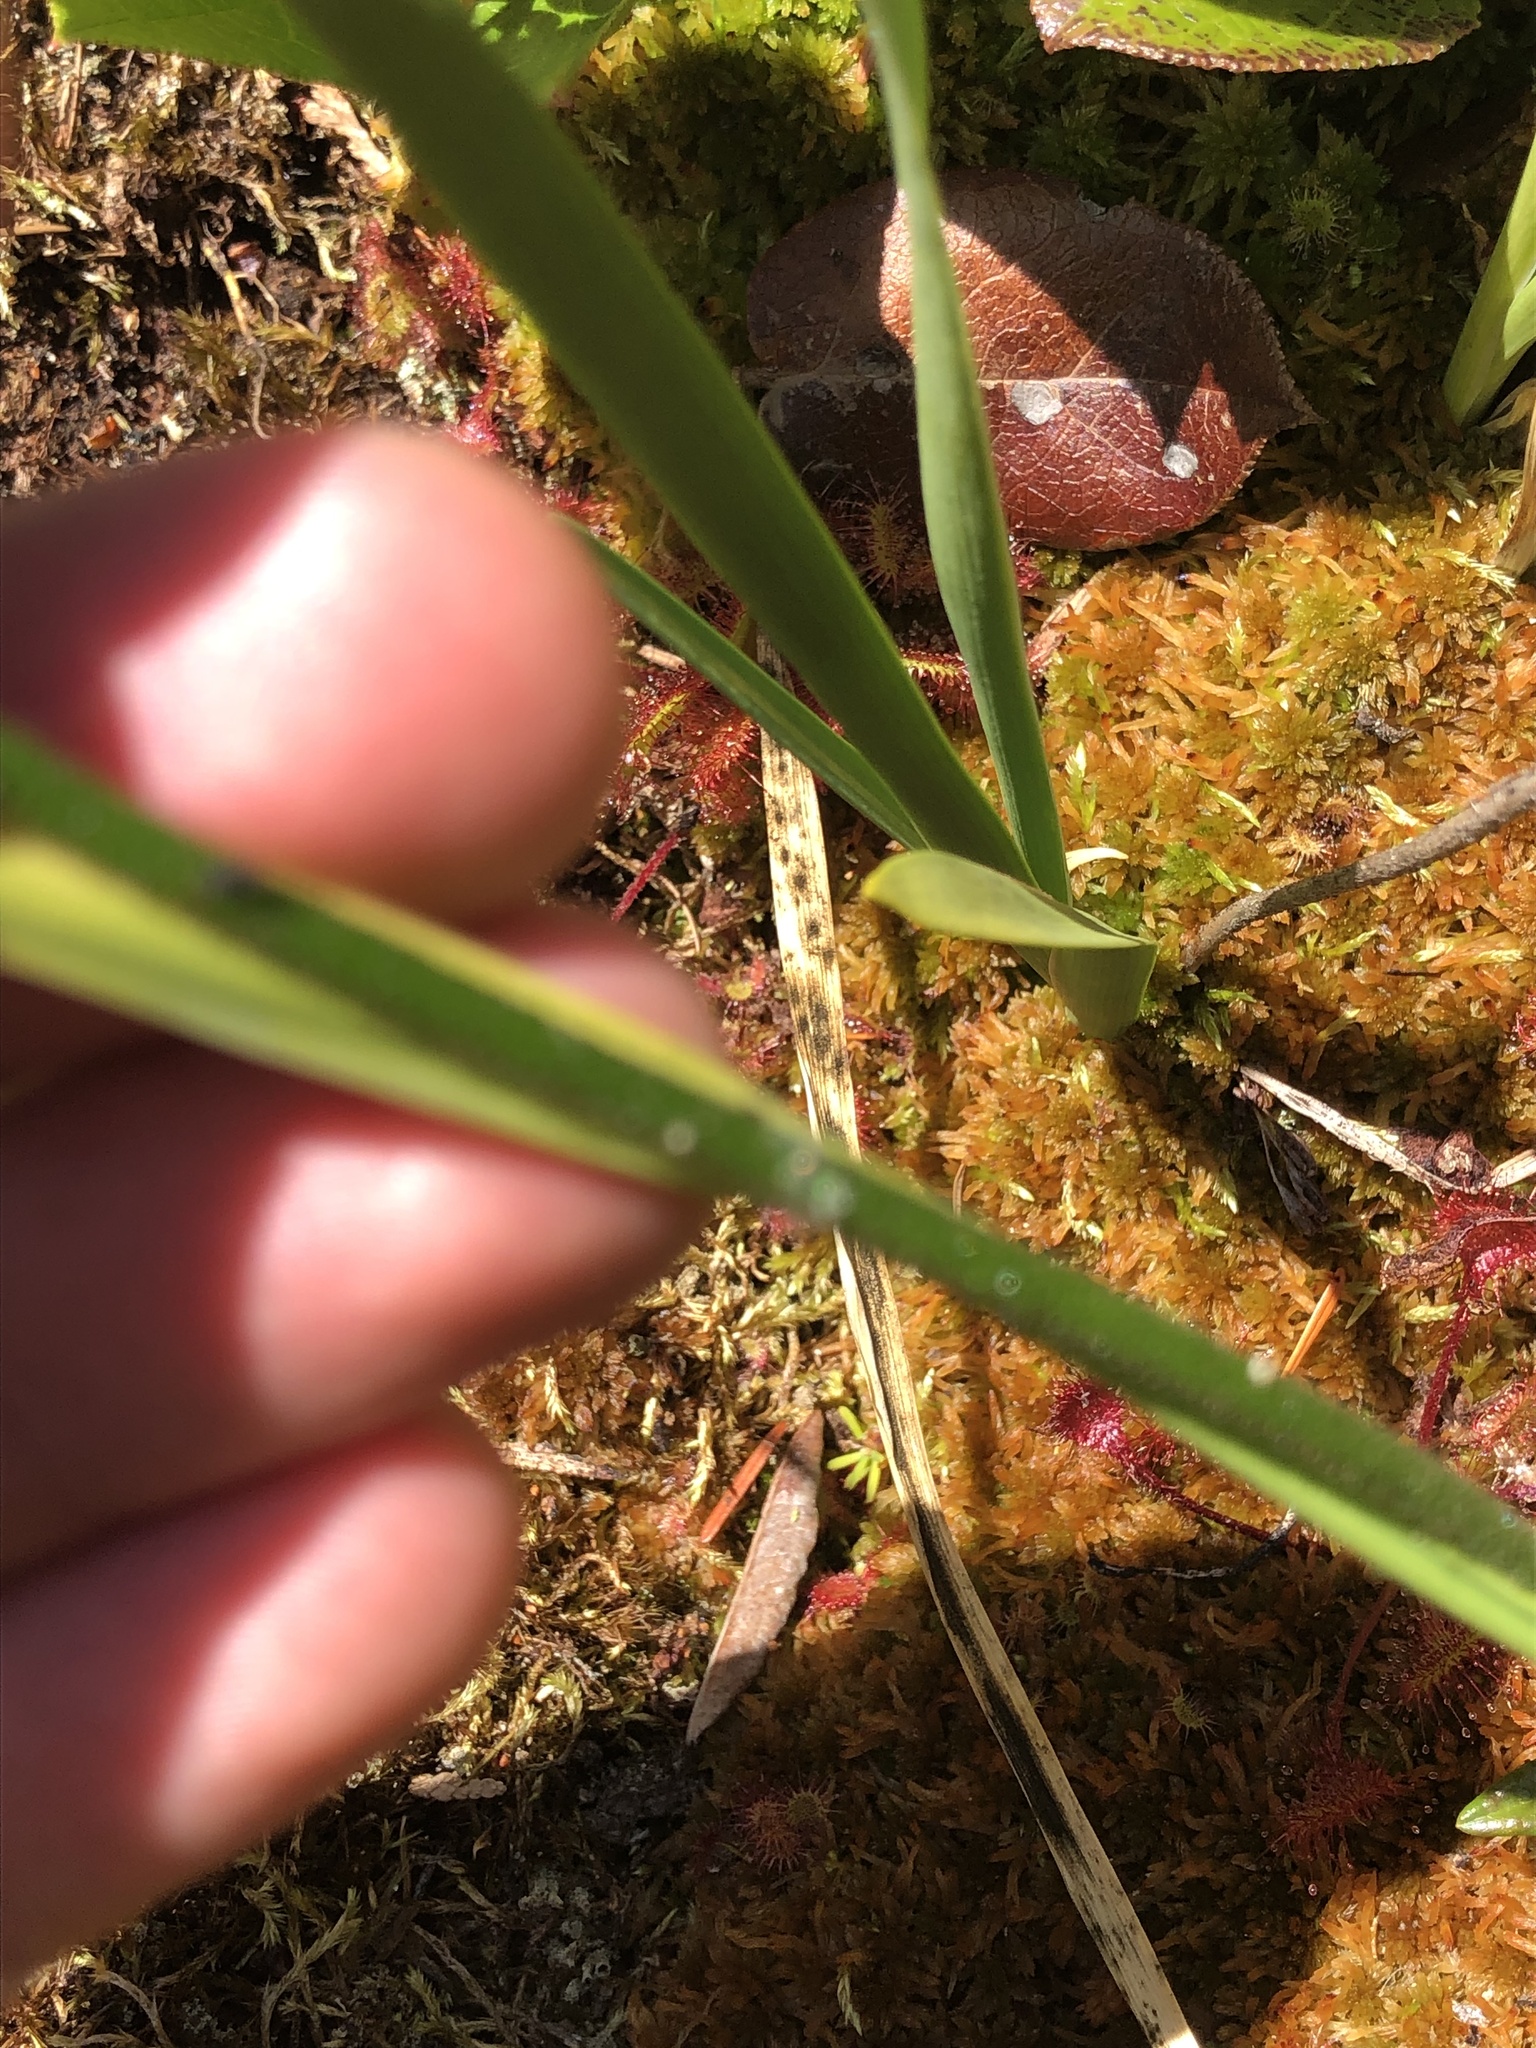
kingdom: Plantae
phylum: Tracheophyta
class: Liliopsida
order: Alismatales
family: Tofieldiaceae
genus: Triantha
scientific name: Triantha glutinosa
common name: Glutinous tofieldia
